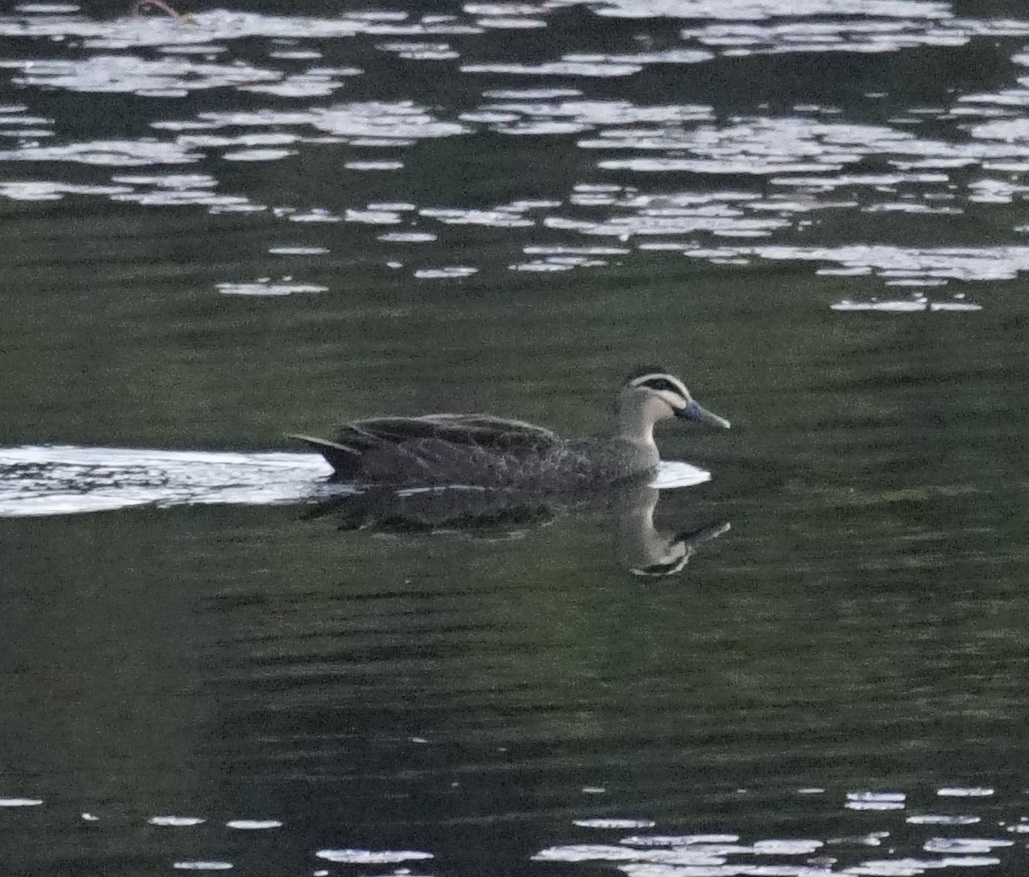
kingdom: Animalia
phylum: Chordata
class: Aves
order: Anseriformes
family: Anatidae
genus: Anas
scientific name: Anas superciliosa
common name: Pacific black duck
